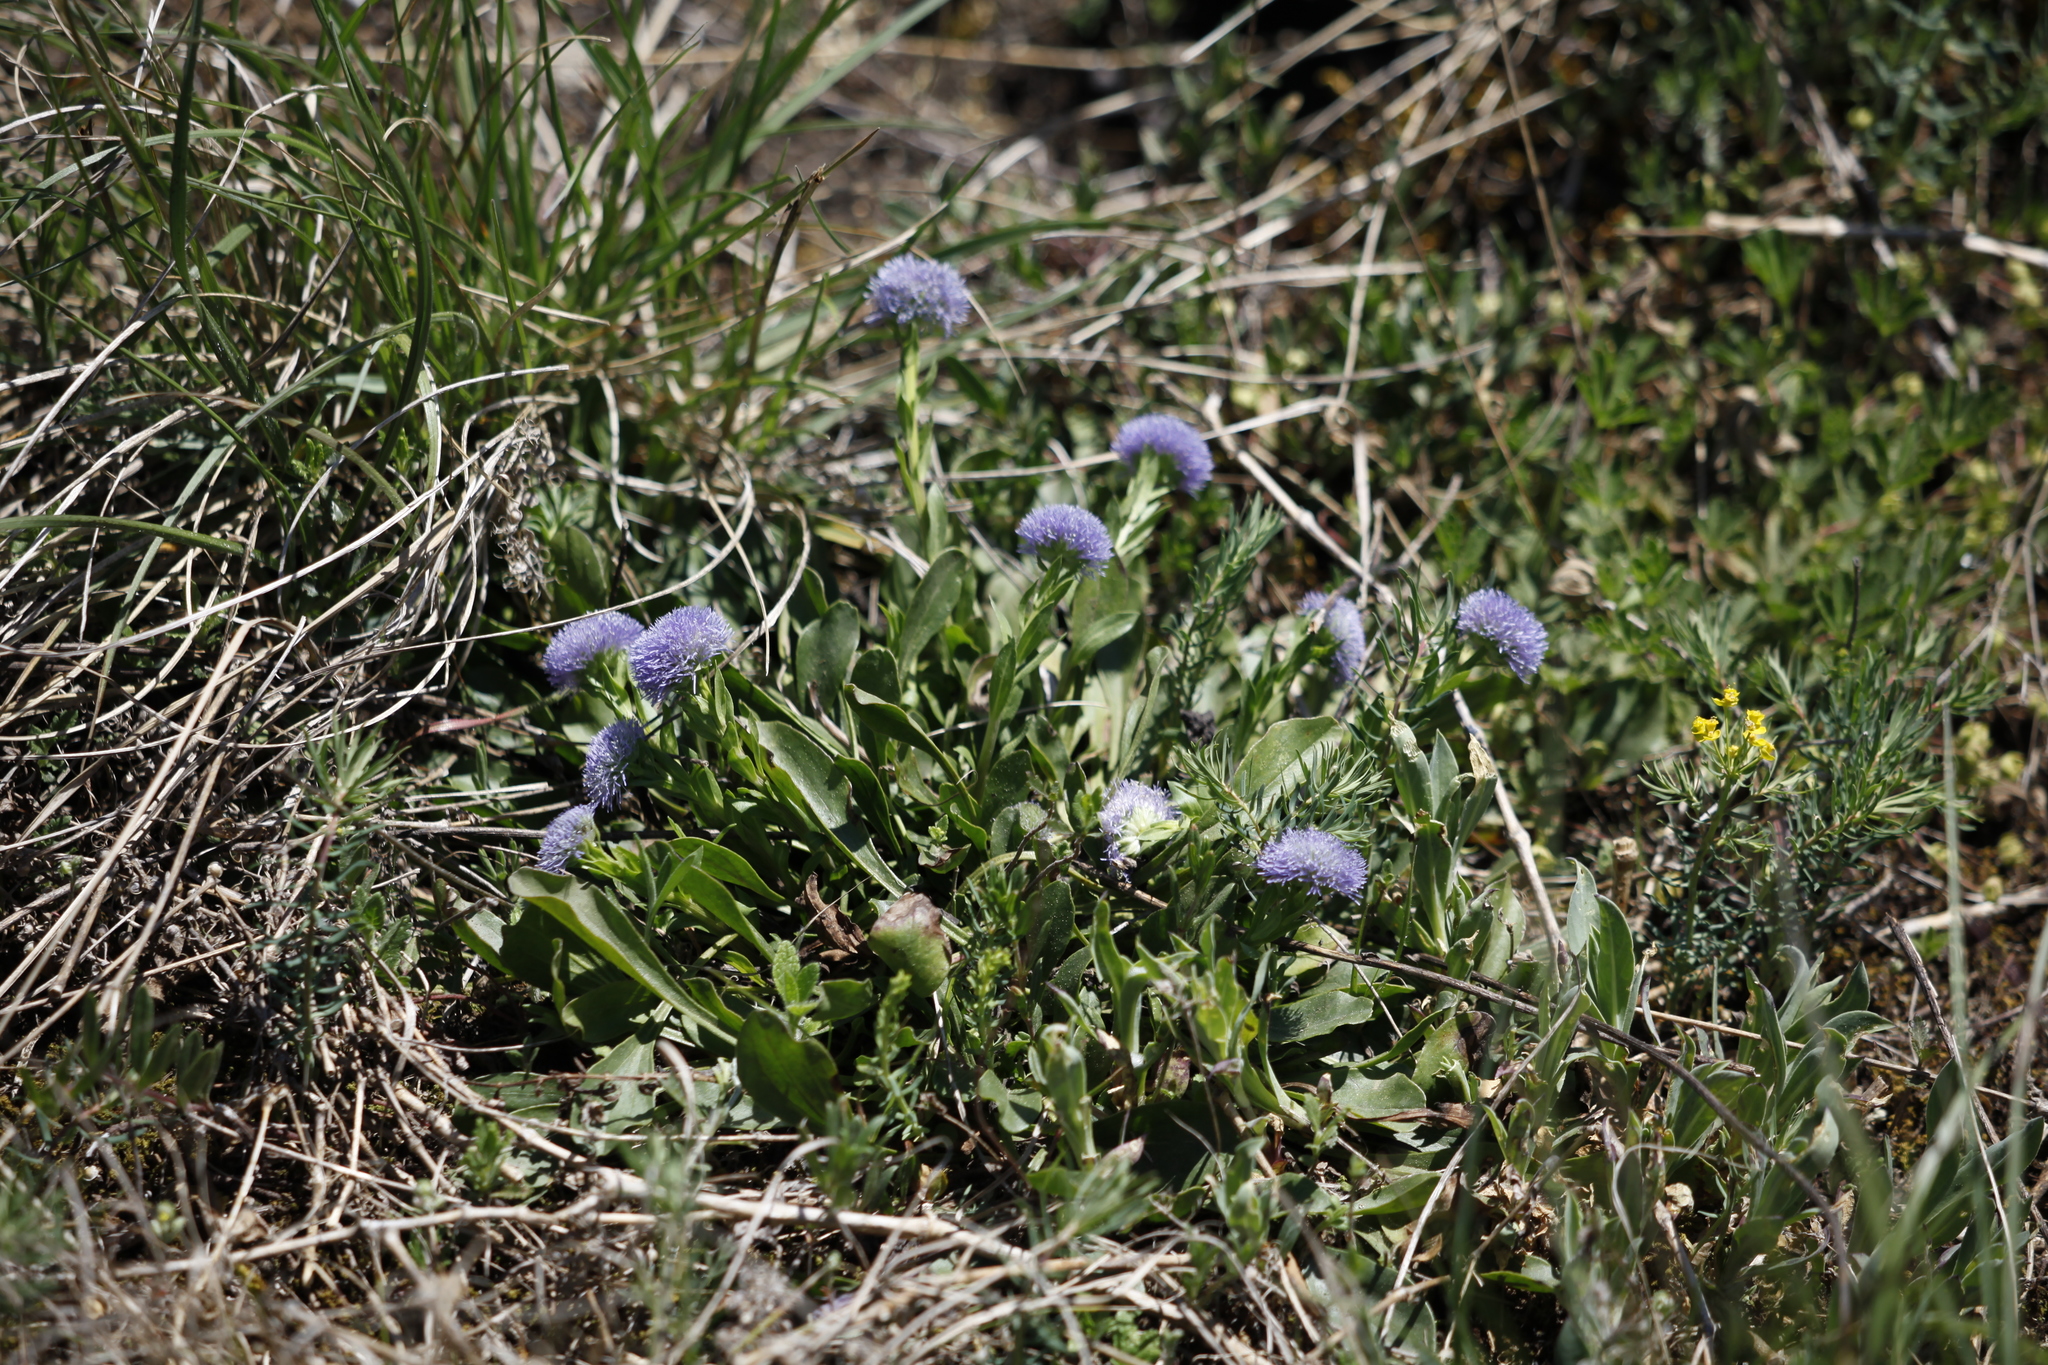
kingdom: Plantae
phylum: Tracheophyta
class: Magnoliopsida
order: Lamiales
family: Plantaginaceae
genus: Globularia
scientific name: Globularia bisnagarica
